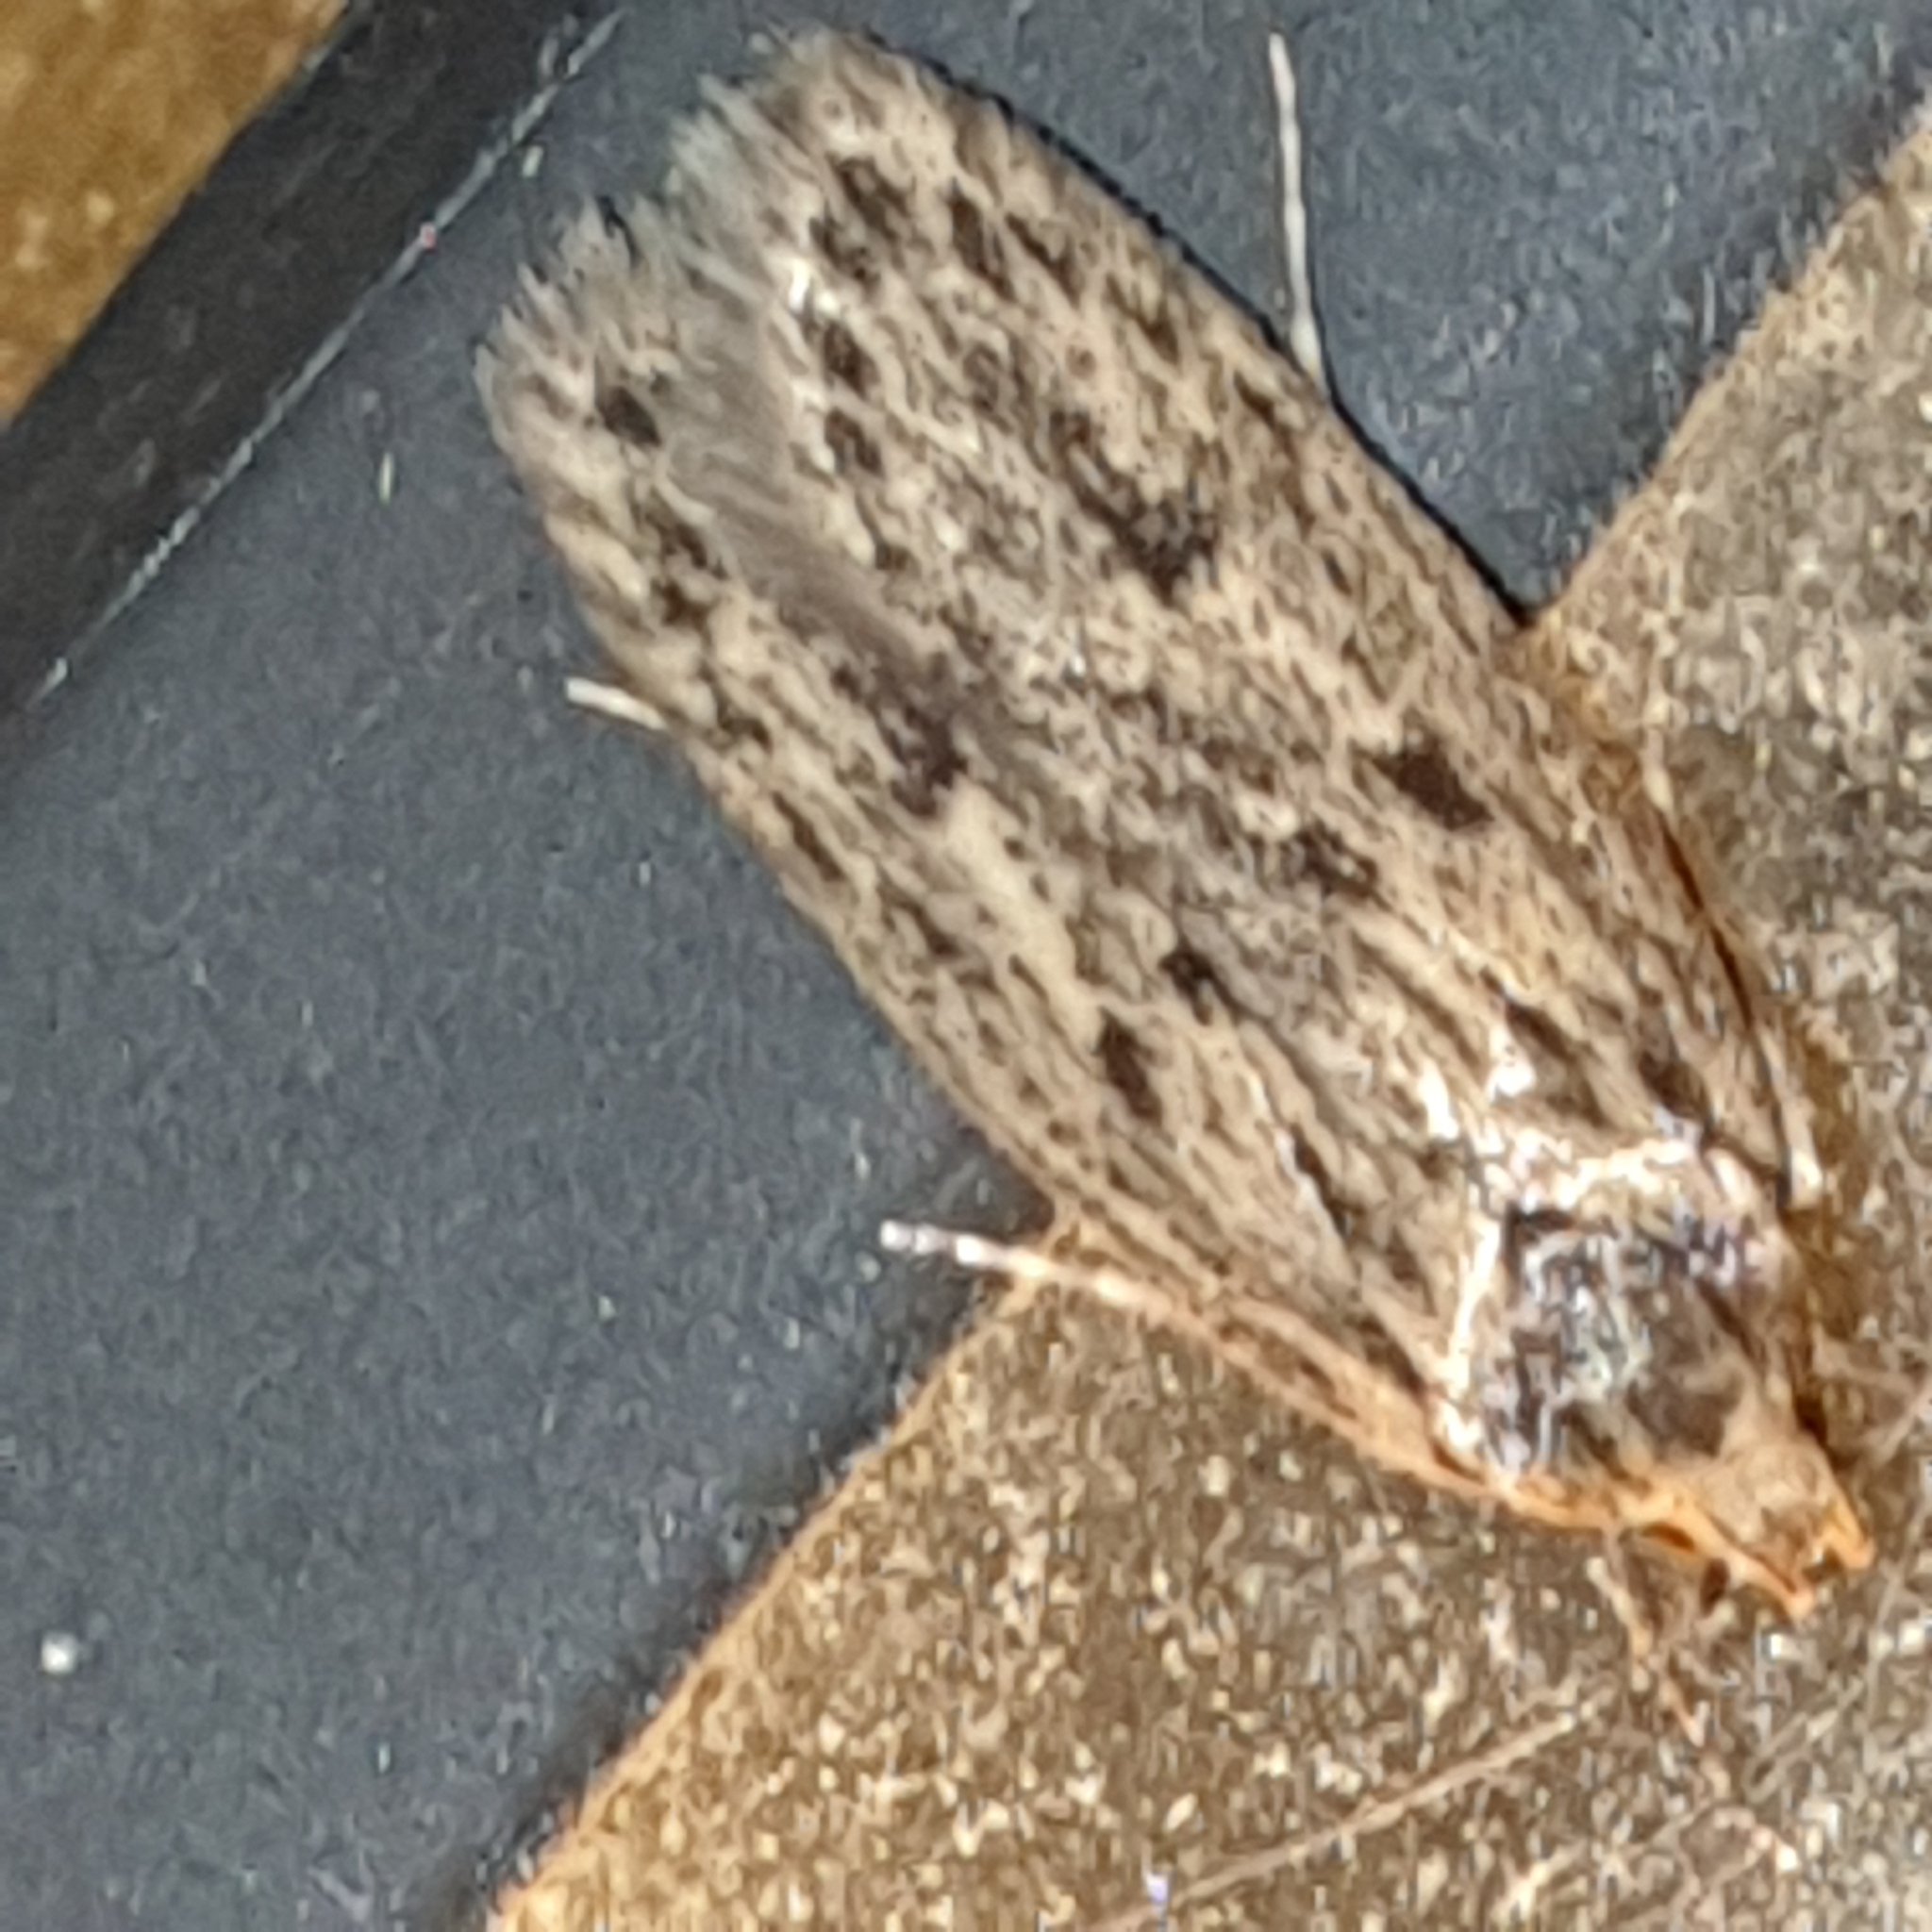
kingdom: Animalia
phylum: Arthropoda
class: Insecta
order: Lepidoptera
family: Oecophoridae
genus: Hofmannophila
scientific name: Hofmannophila pseudospretella
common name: Brown house moth
